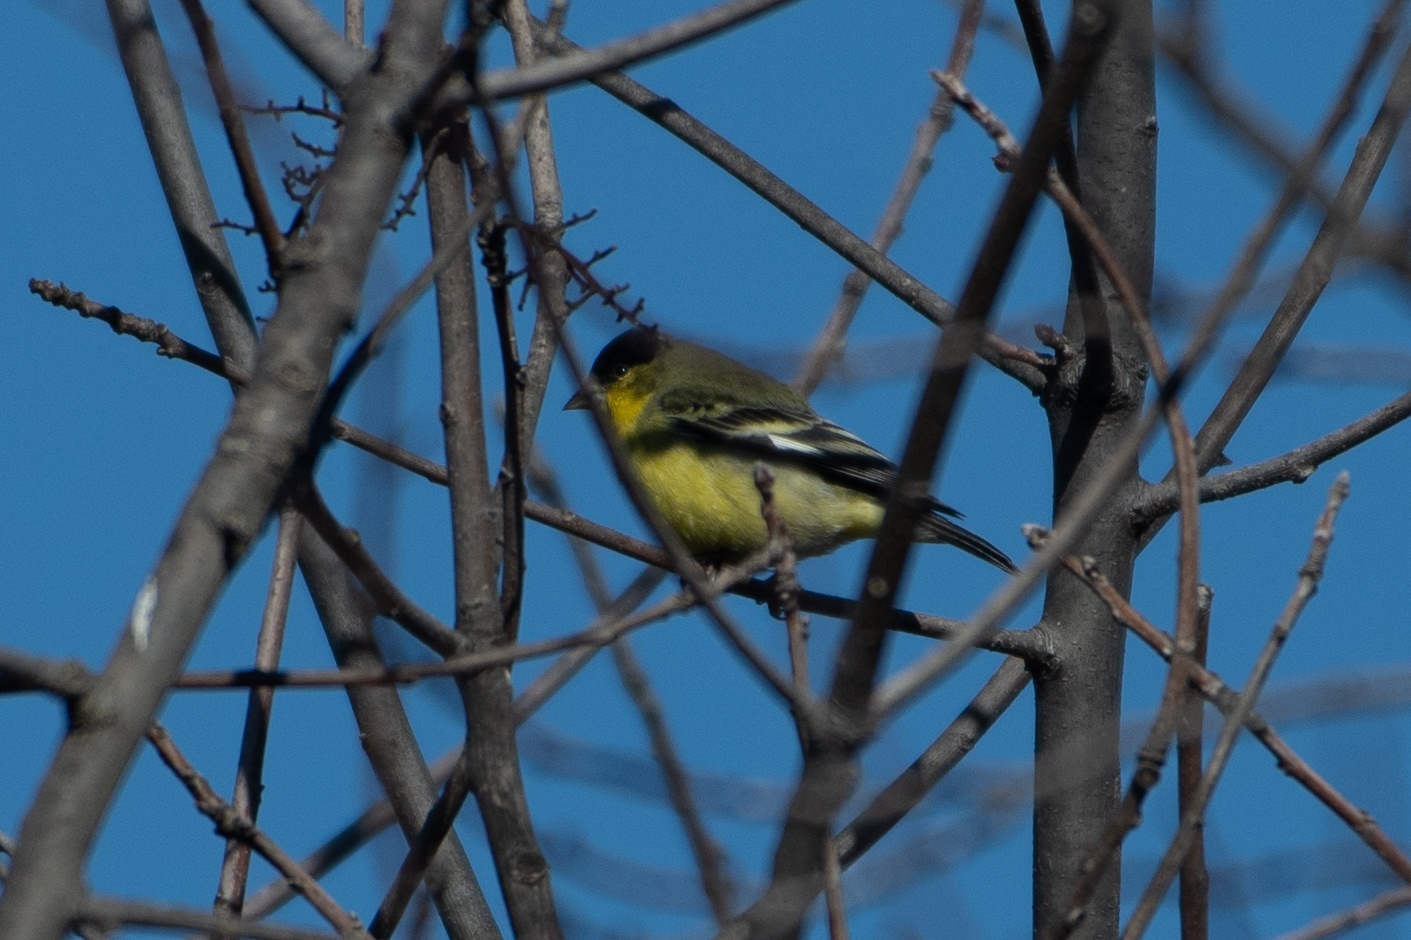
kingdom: Animalia
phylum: Chordata
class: Aves
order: Passeriformes
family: Fringillidae
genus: Spinus
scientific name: Spinus psaltria
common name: Lesser goldfinch
